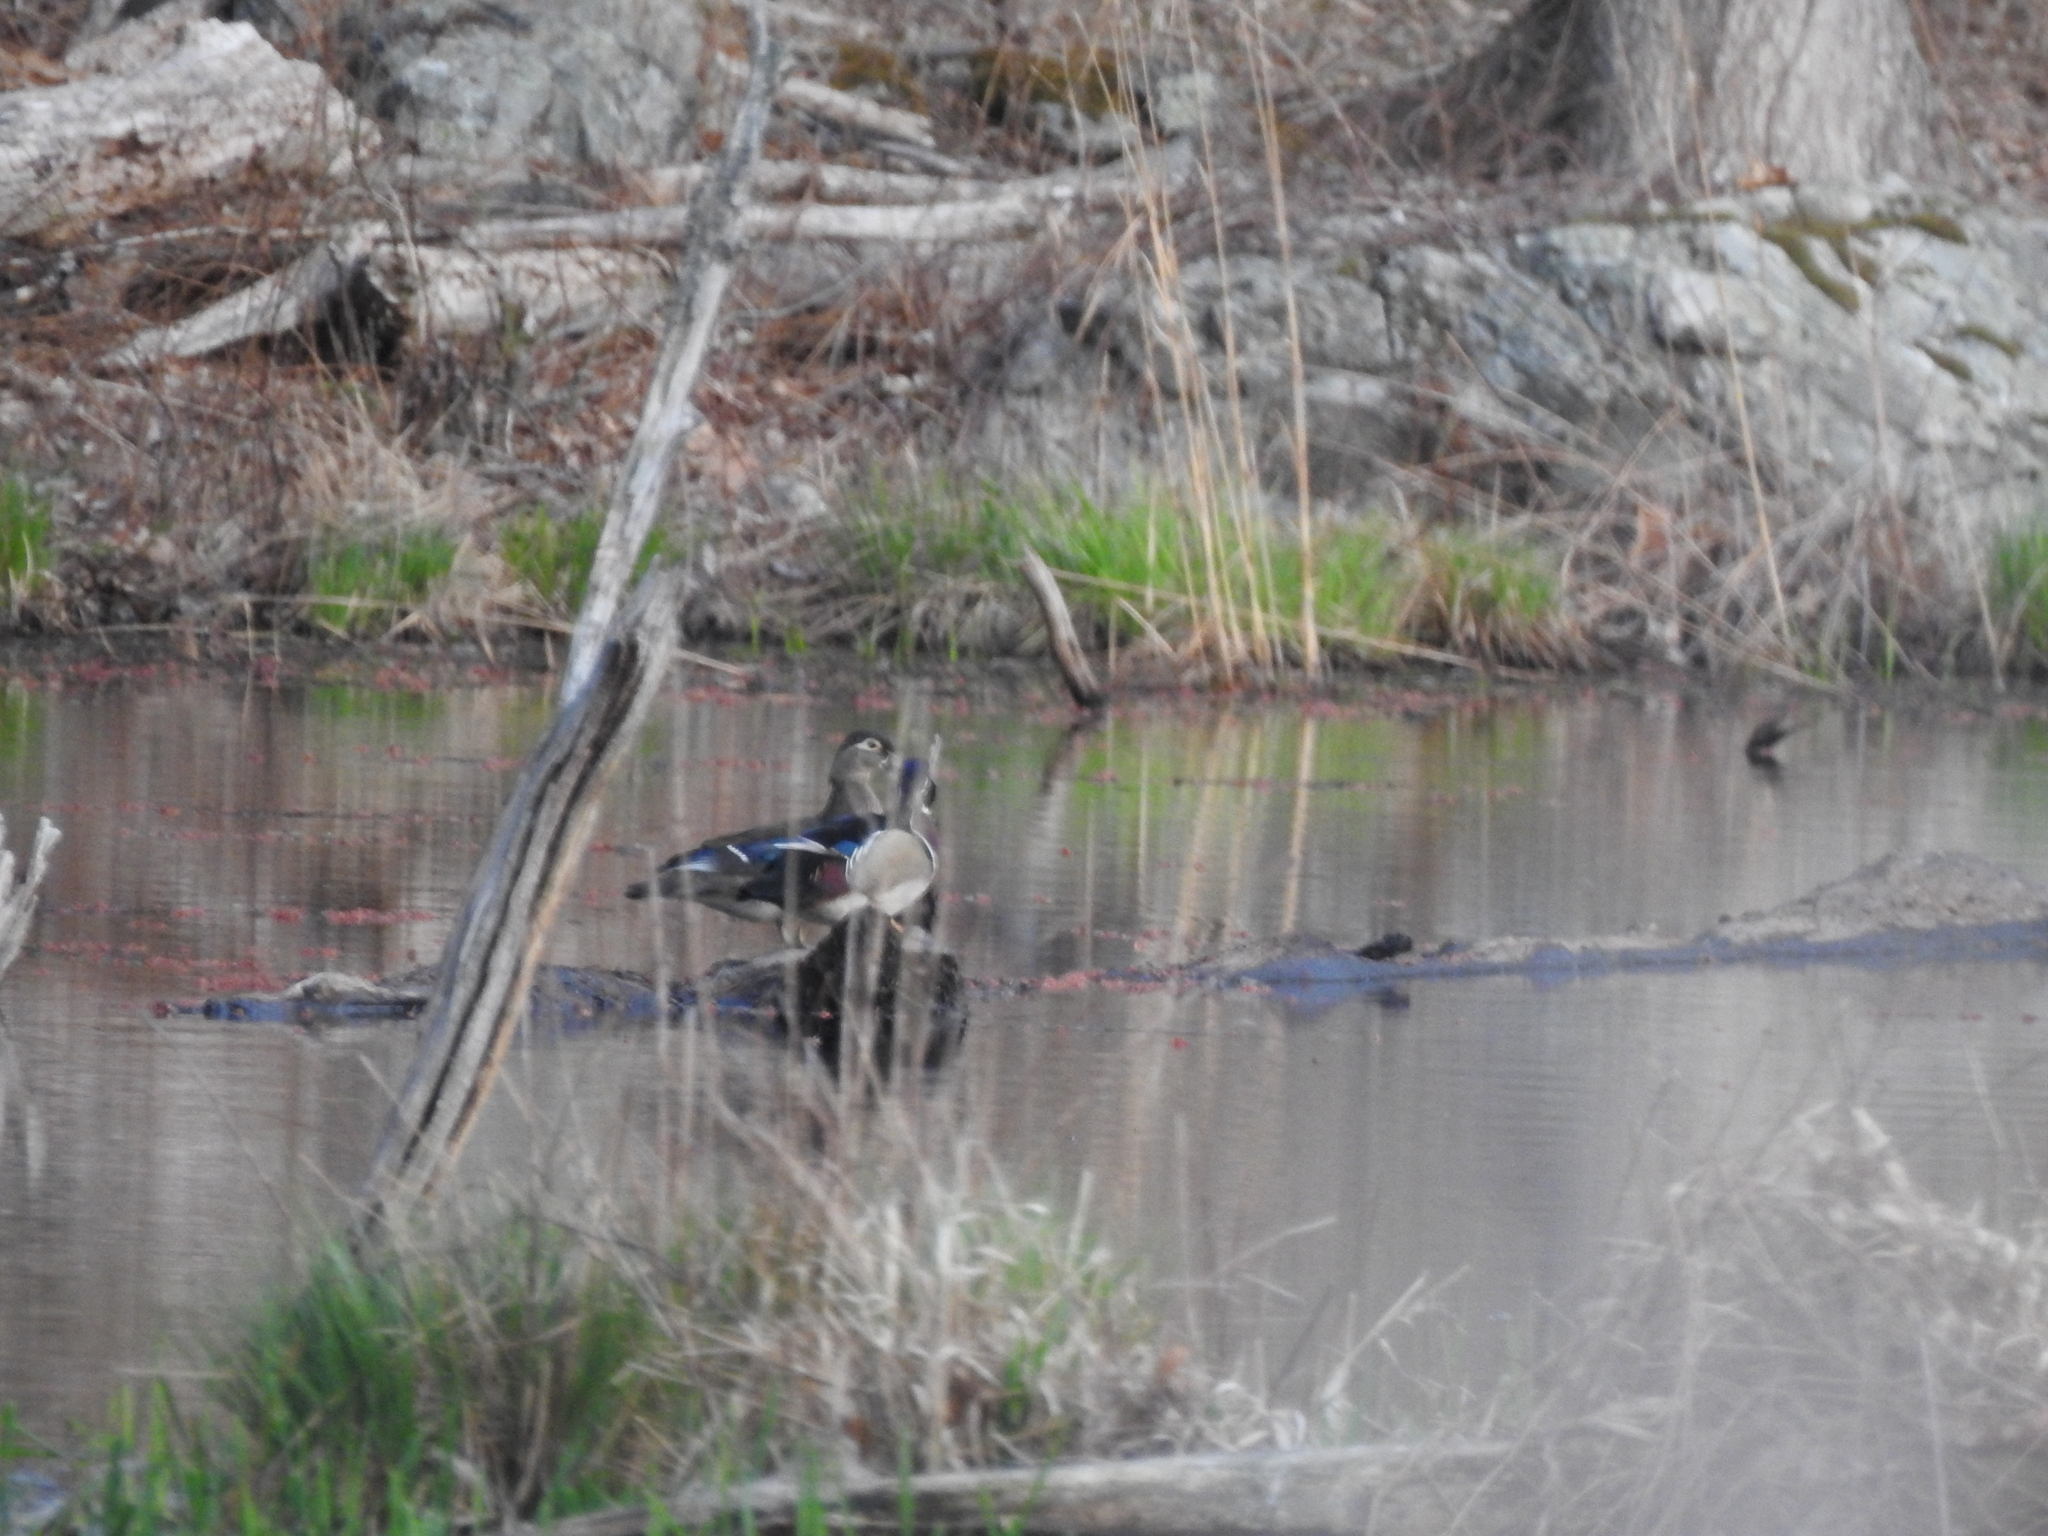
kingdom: Animalia
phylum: Chordata
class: Aves
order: Anseriformes
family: Anatidae
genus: Aix
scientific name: Aix sponsa
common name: Wood duck
